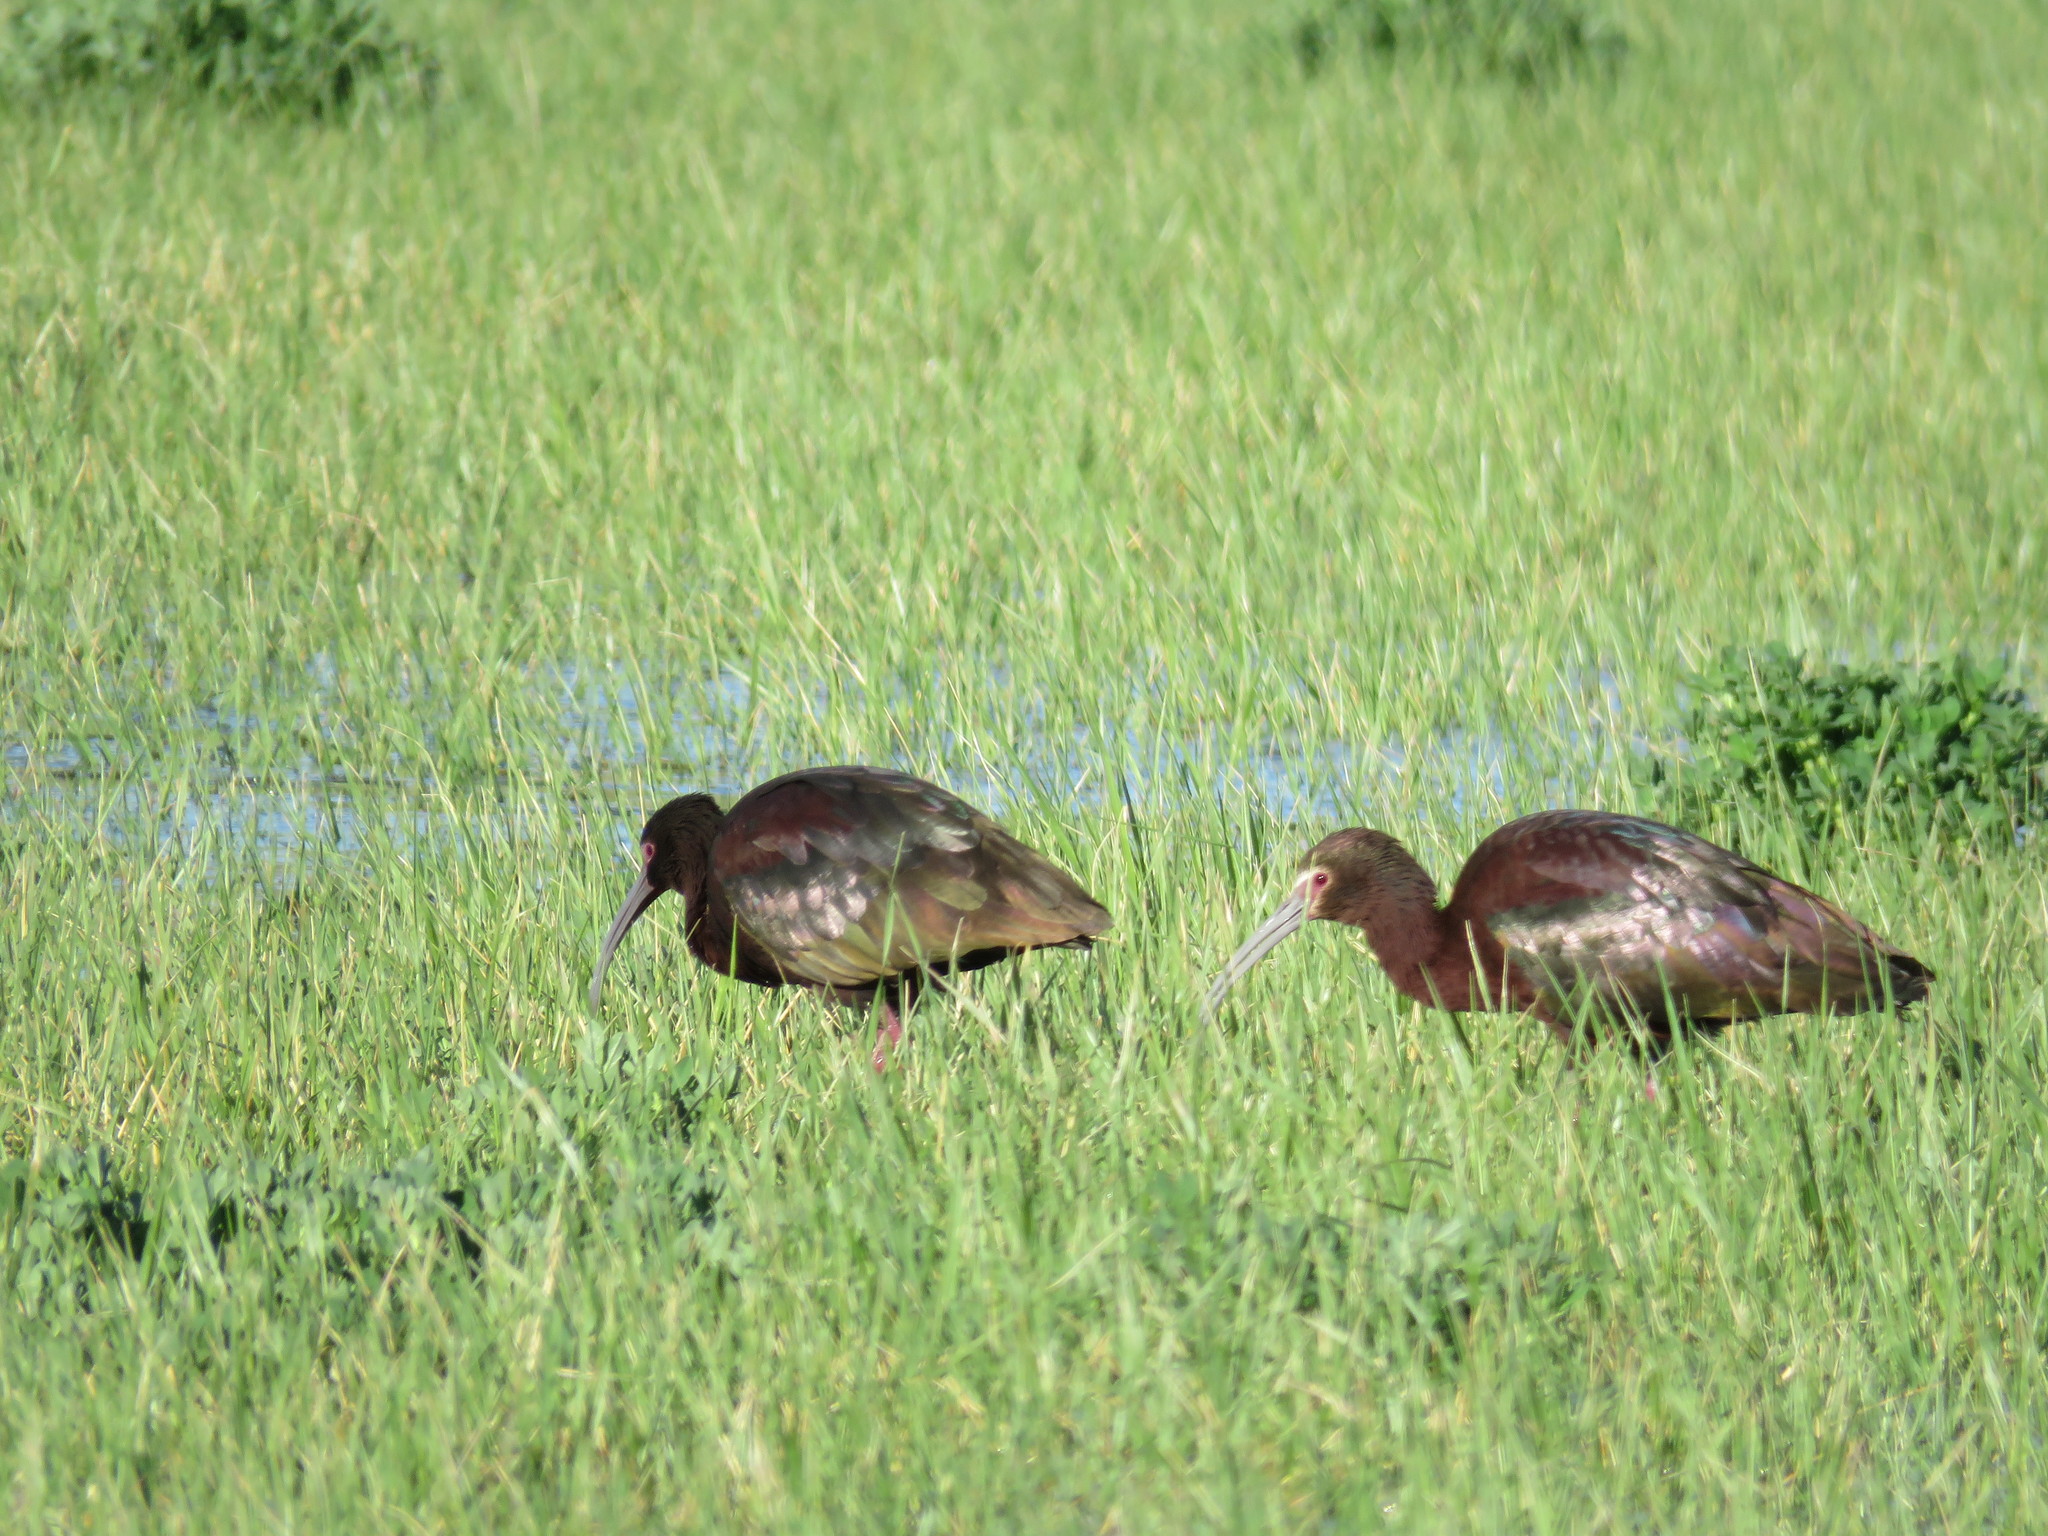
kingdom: Animalia
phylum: Chordata
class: Aves
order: Pelecaniformes
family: Threskiornithidae
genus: Plegadis
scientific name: Plegadis chihi
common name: White-faced ibis
